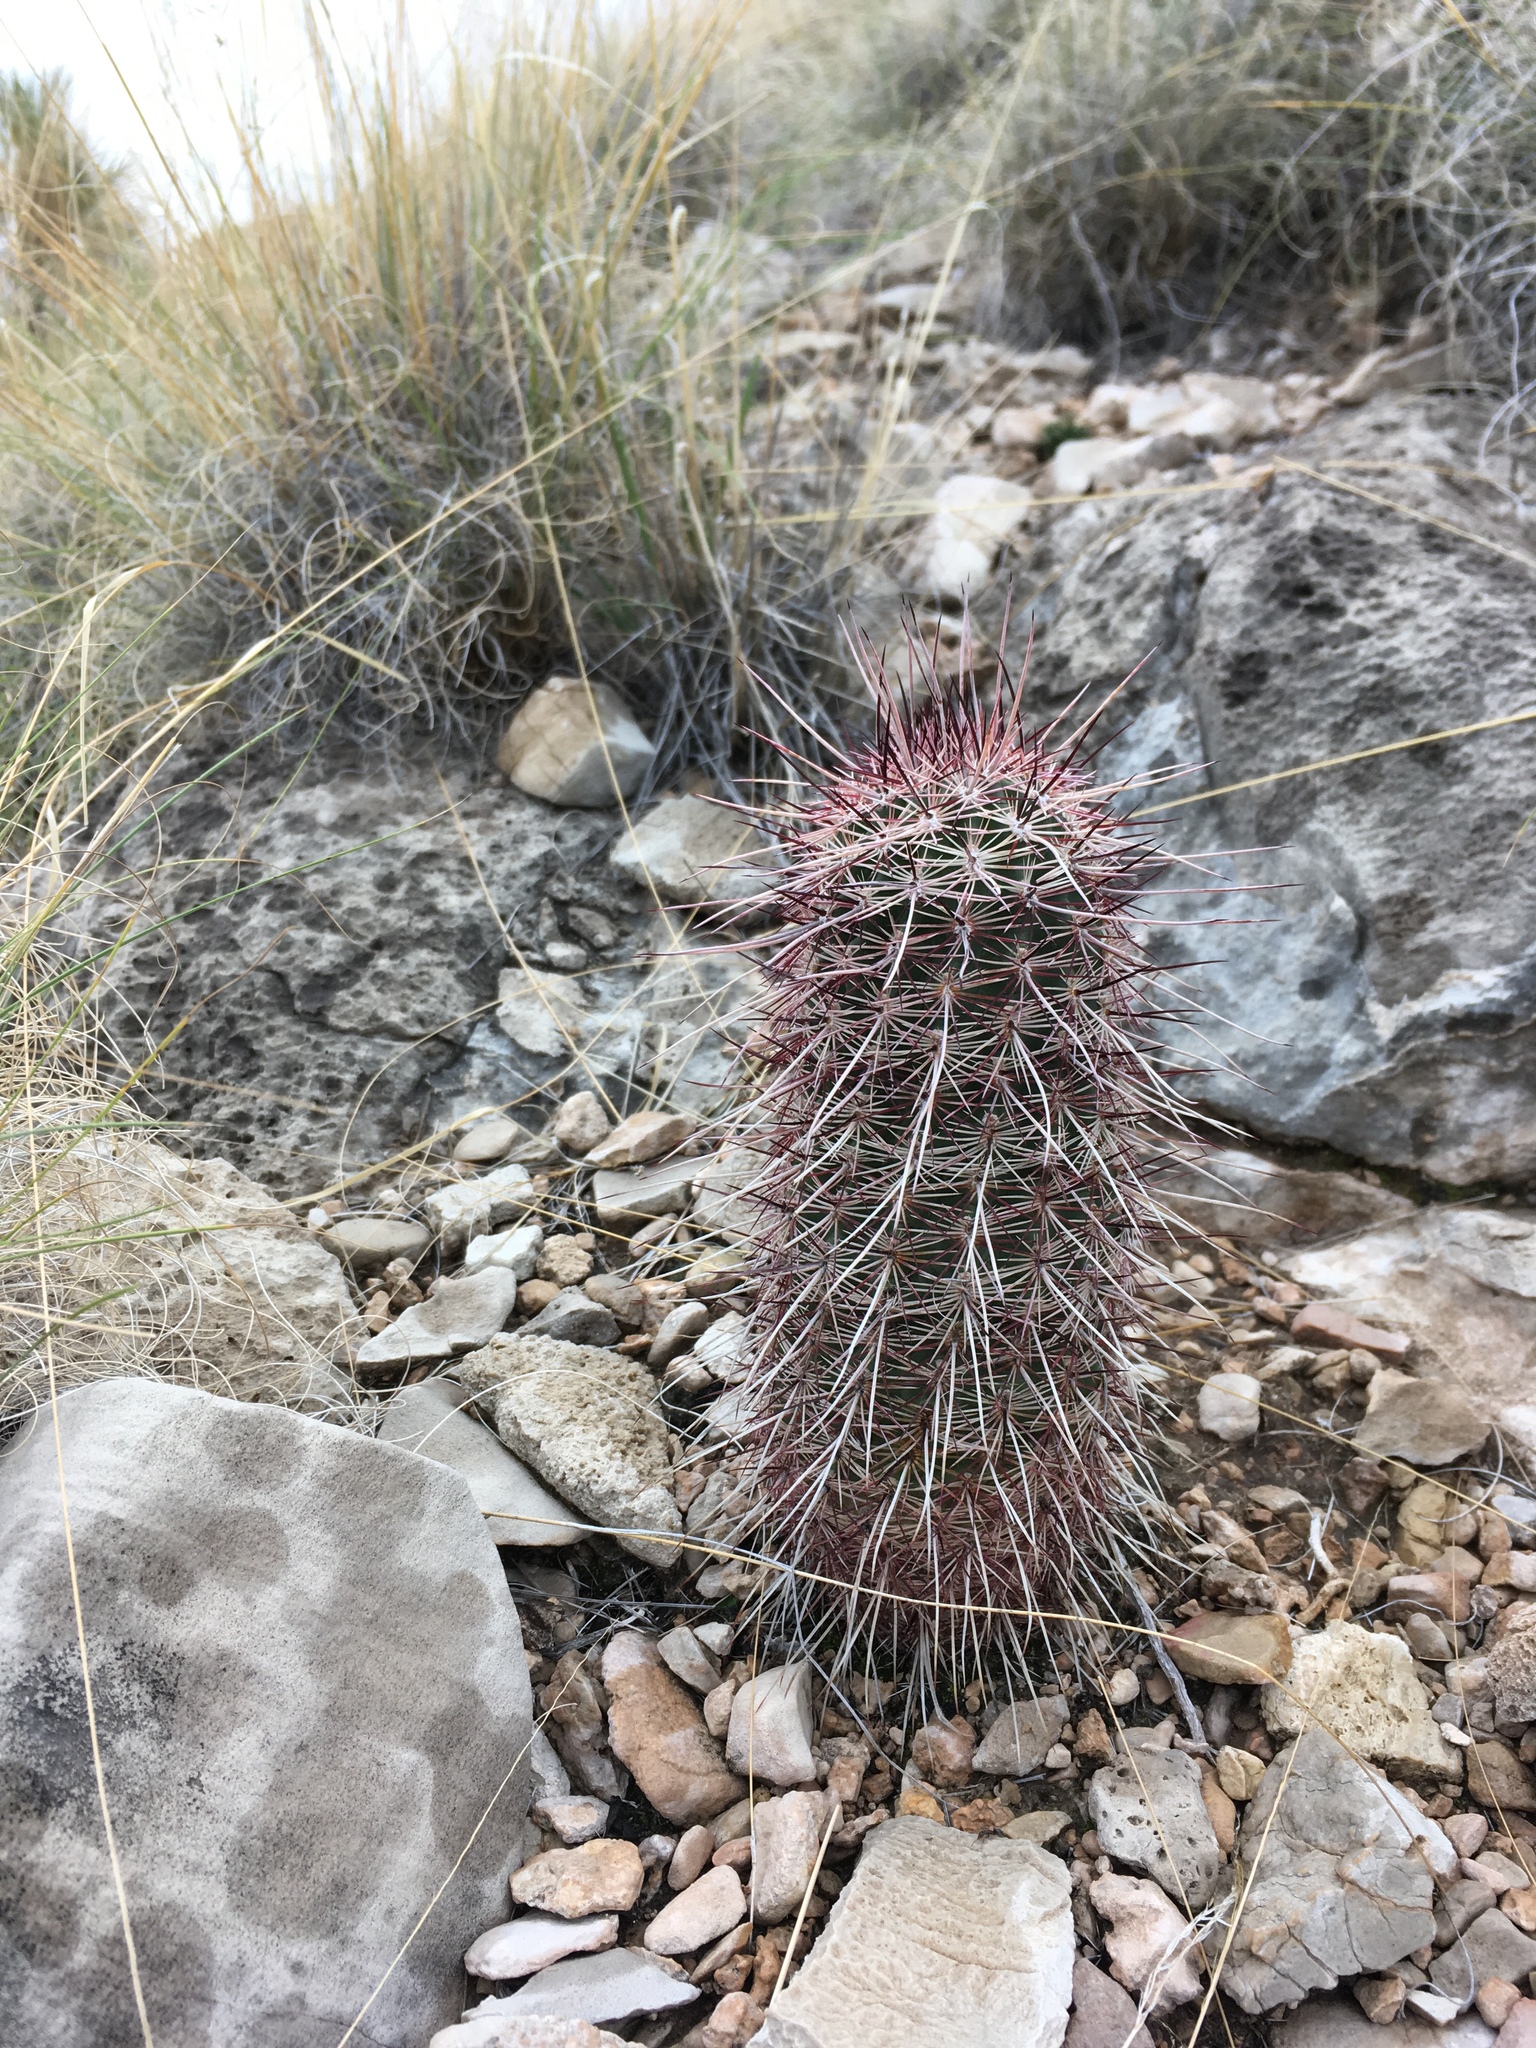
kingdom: Plantae
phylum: Tracheophyta
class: Magnoliopsida
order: Caryophyllales
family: Cactaceae
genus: Echinocereus
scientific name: Echinocereus viridiflorus
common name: Nylon hedgehog cactus
